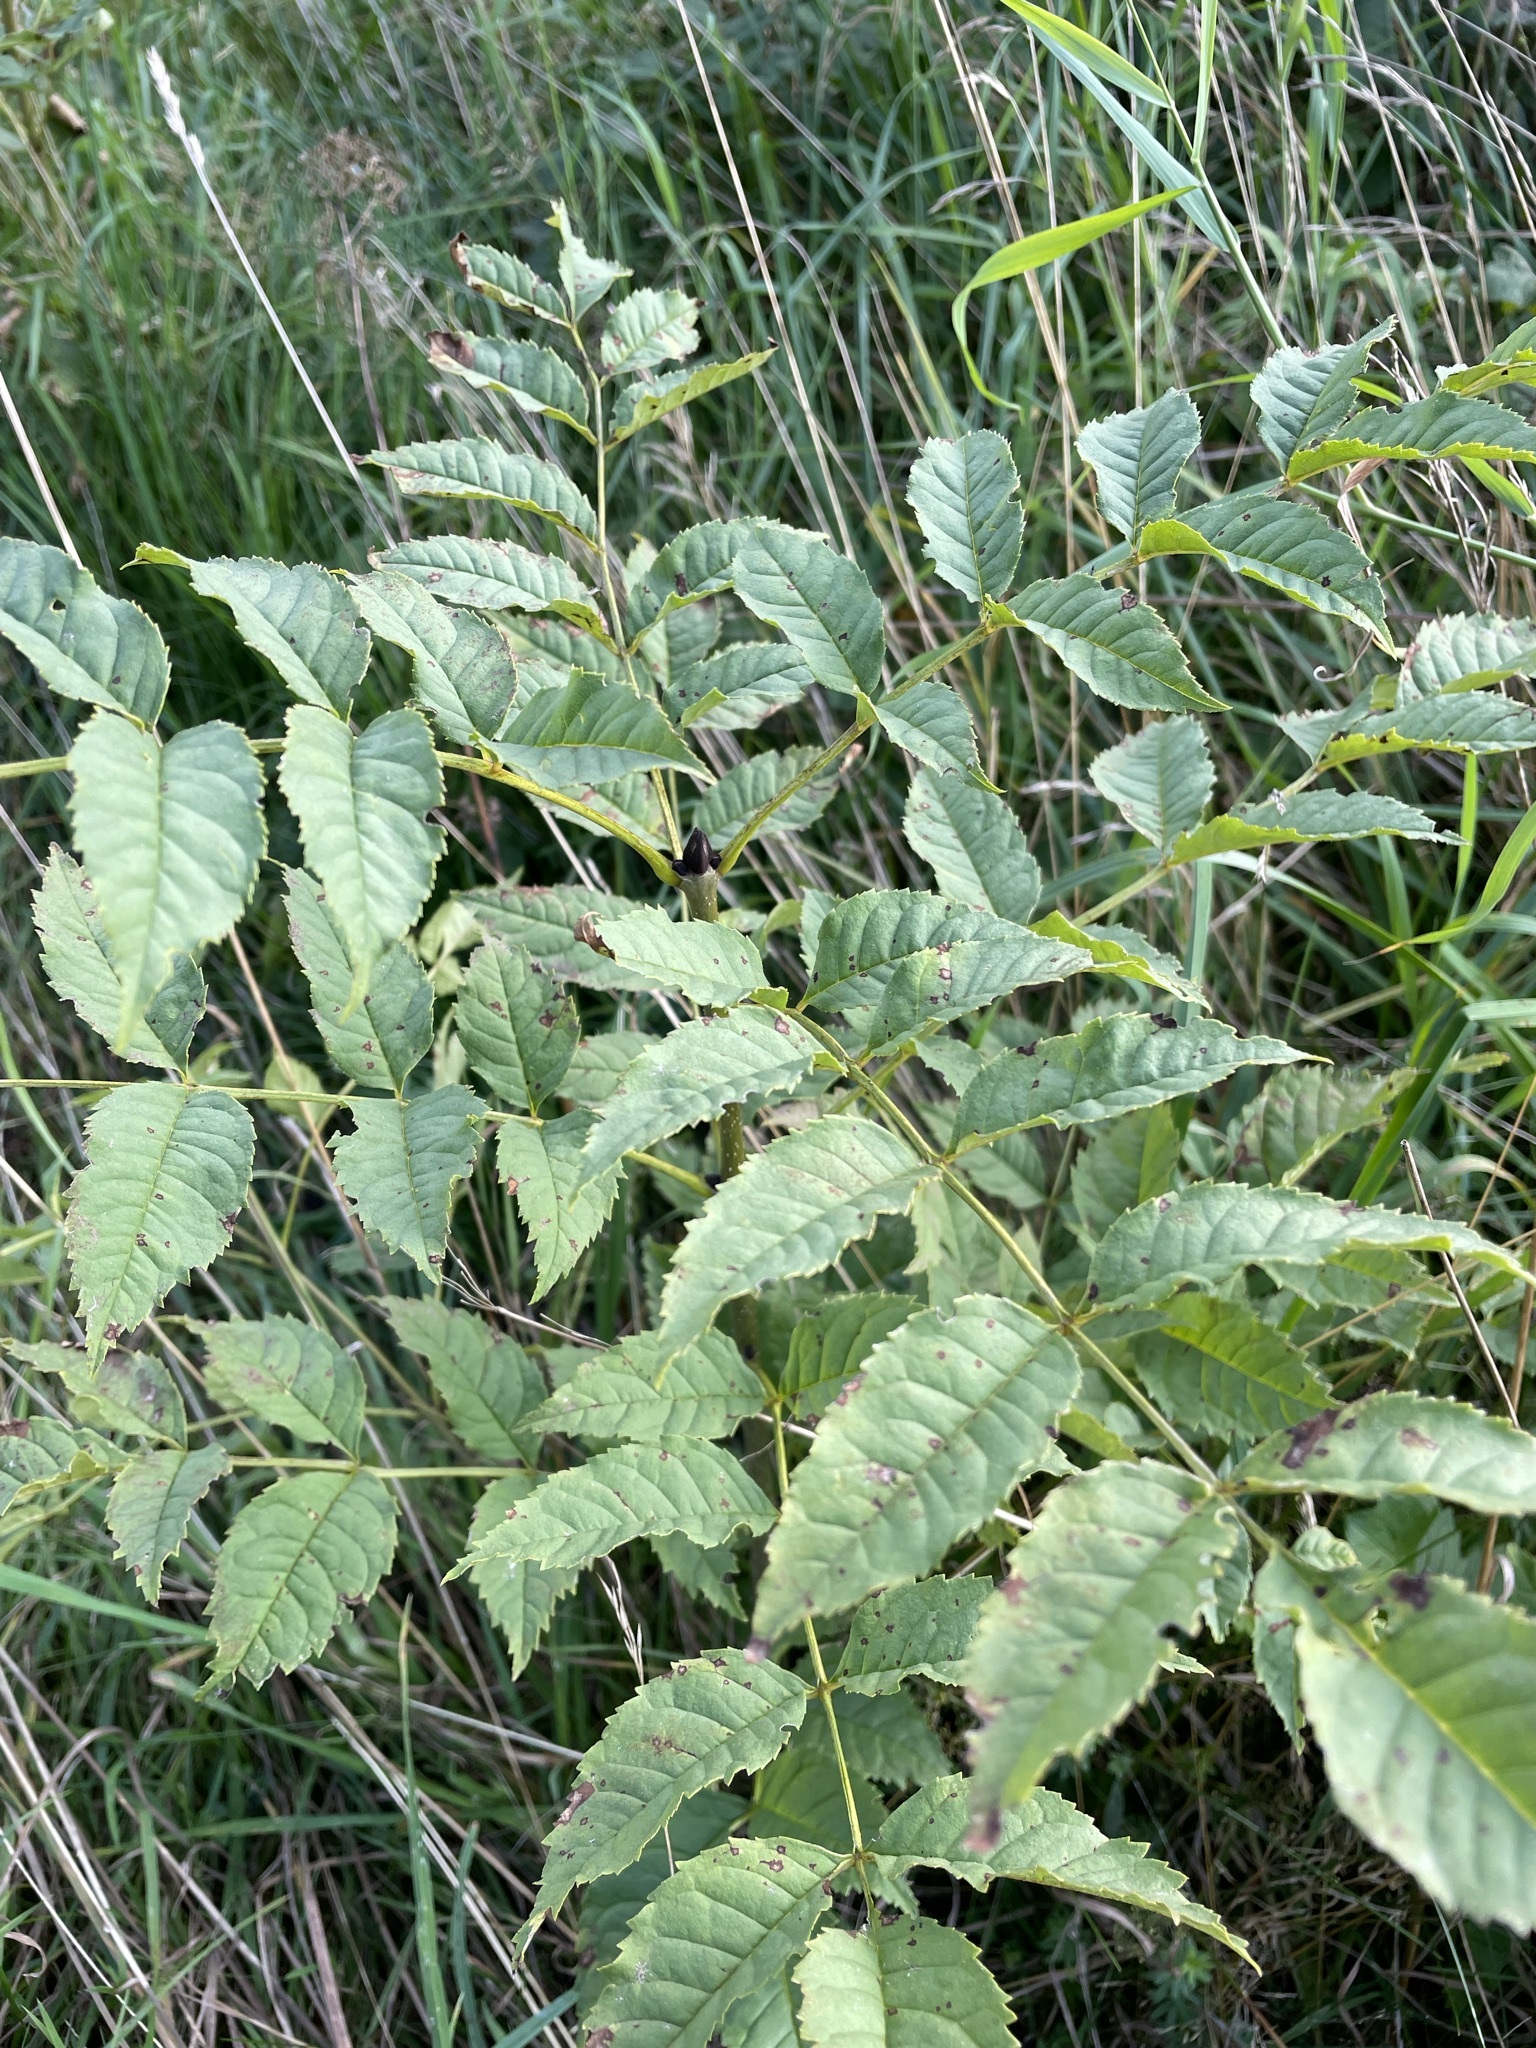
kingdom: Plantae
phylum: Tracheophyta
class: Magnoliopsida
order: Lamiales
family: Oleaceae
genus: Fraxinus
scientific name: Fraxinus excelsior
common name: European ash
